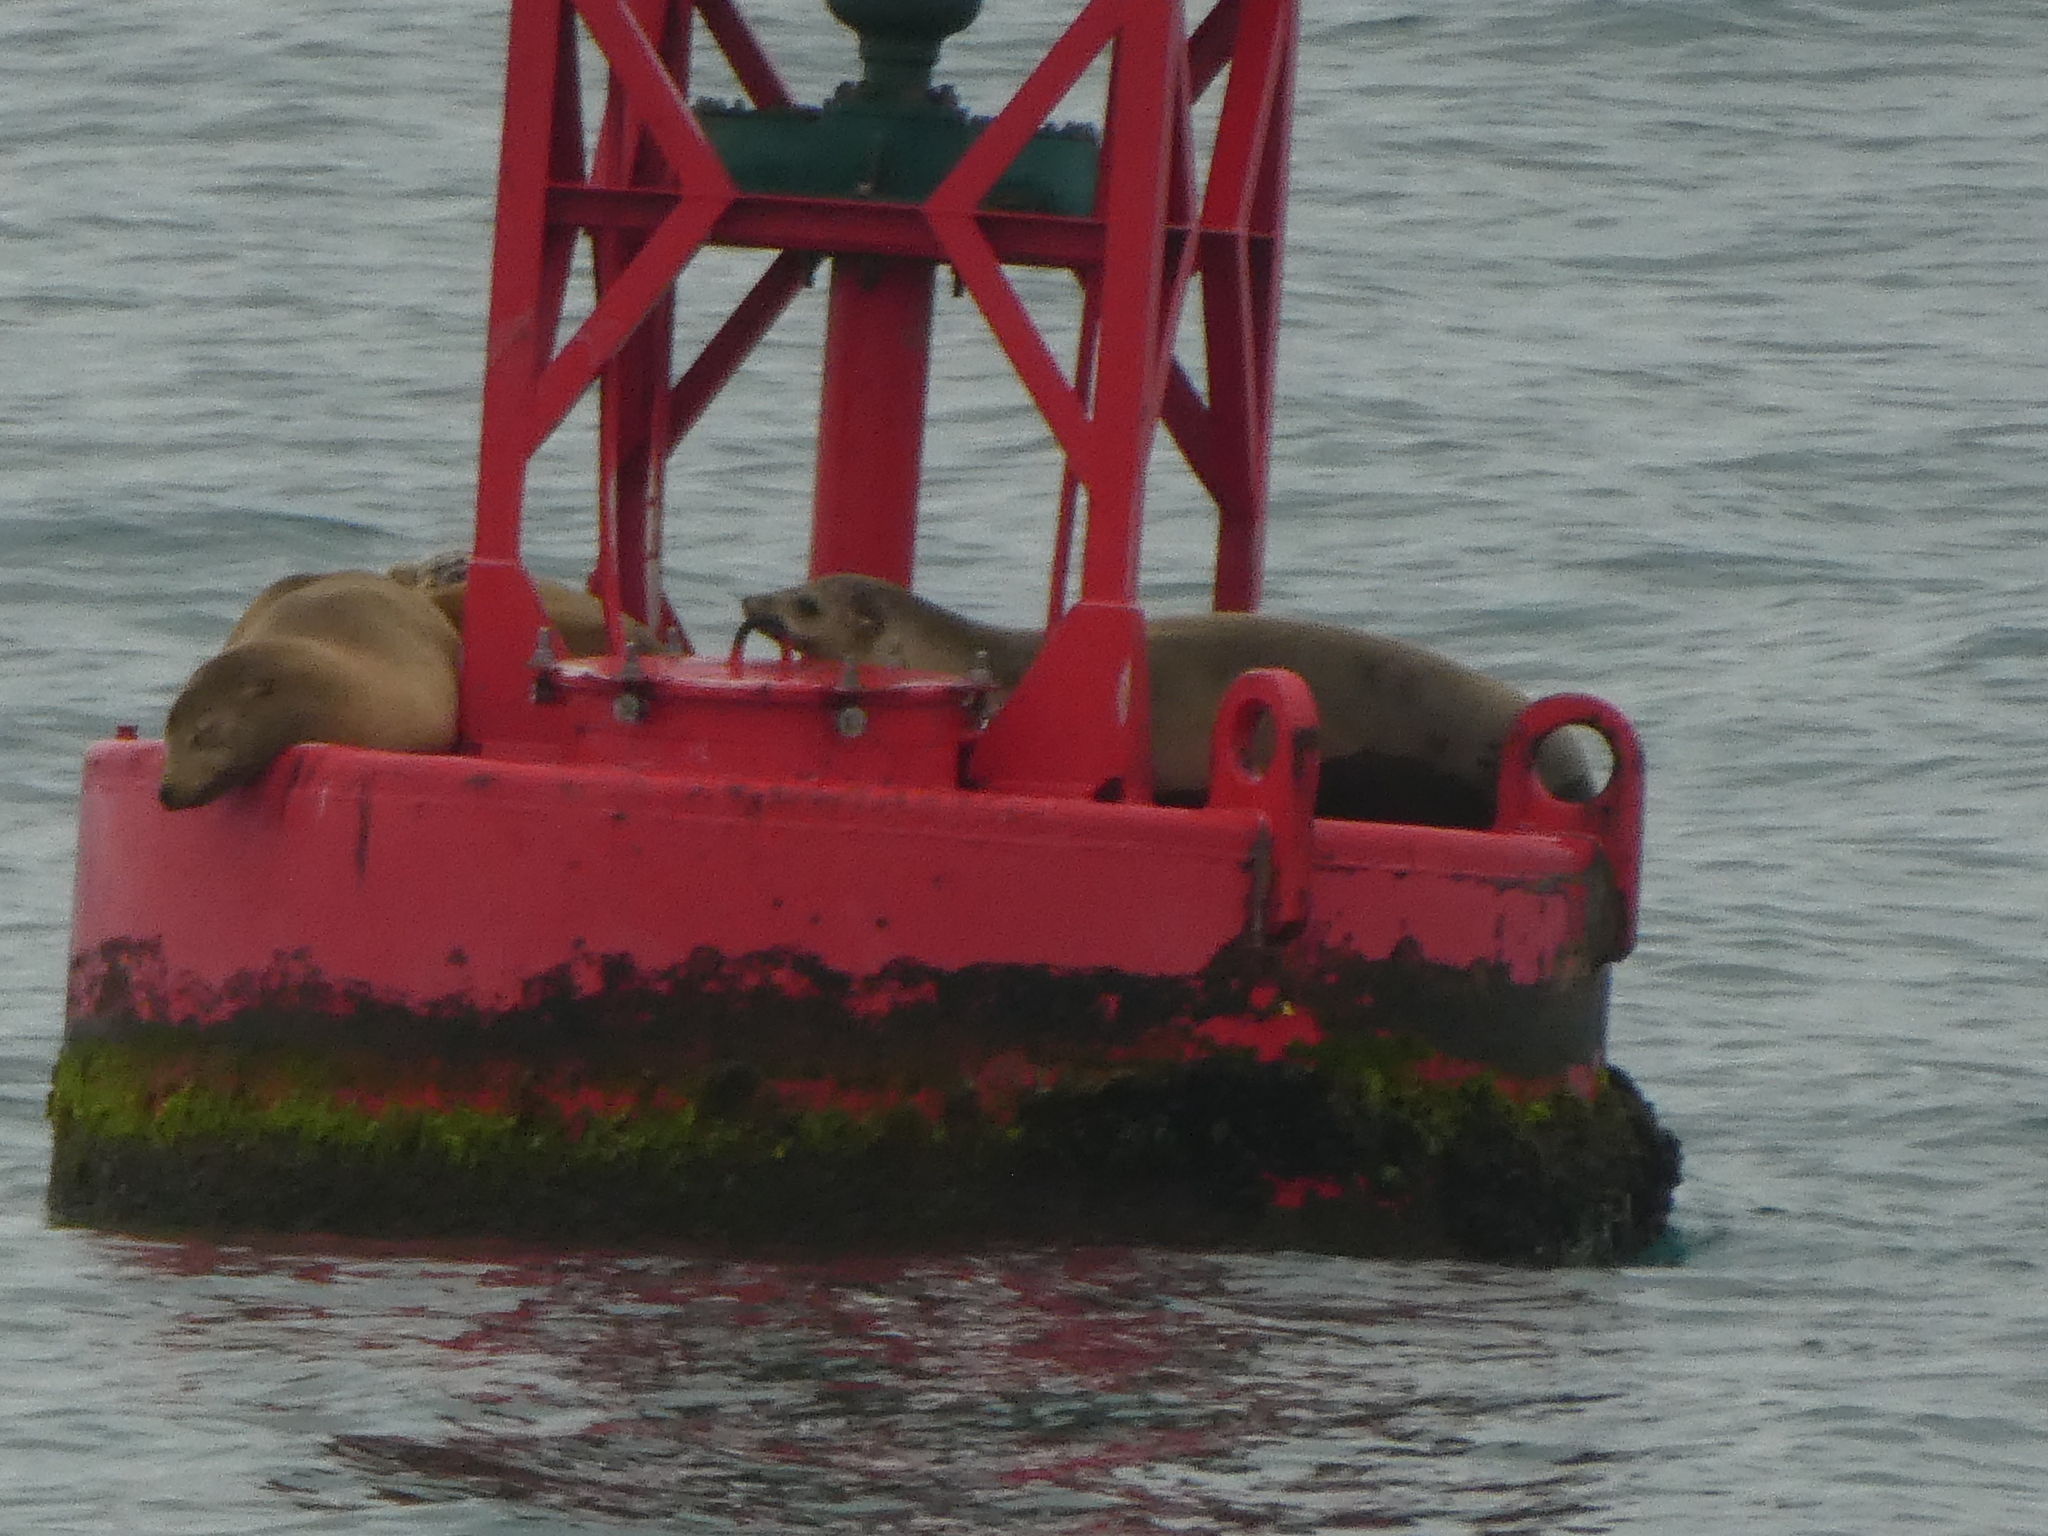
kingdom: Animalia
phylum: Chordata
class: Mammalia
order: Carnivora
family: Otariidae
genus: Zalophus
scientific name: Zalophus californianus
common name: California sea lion
